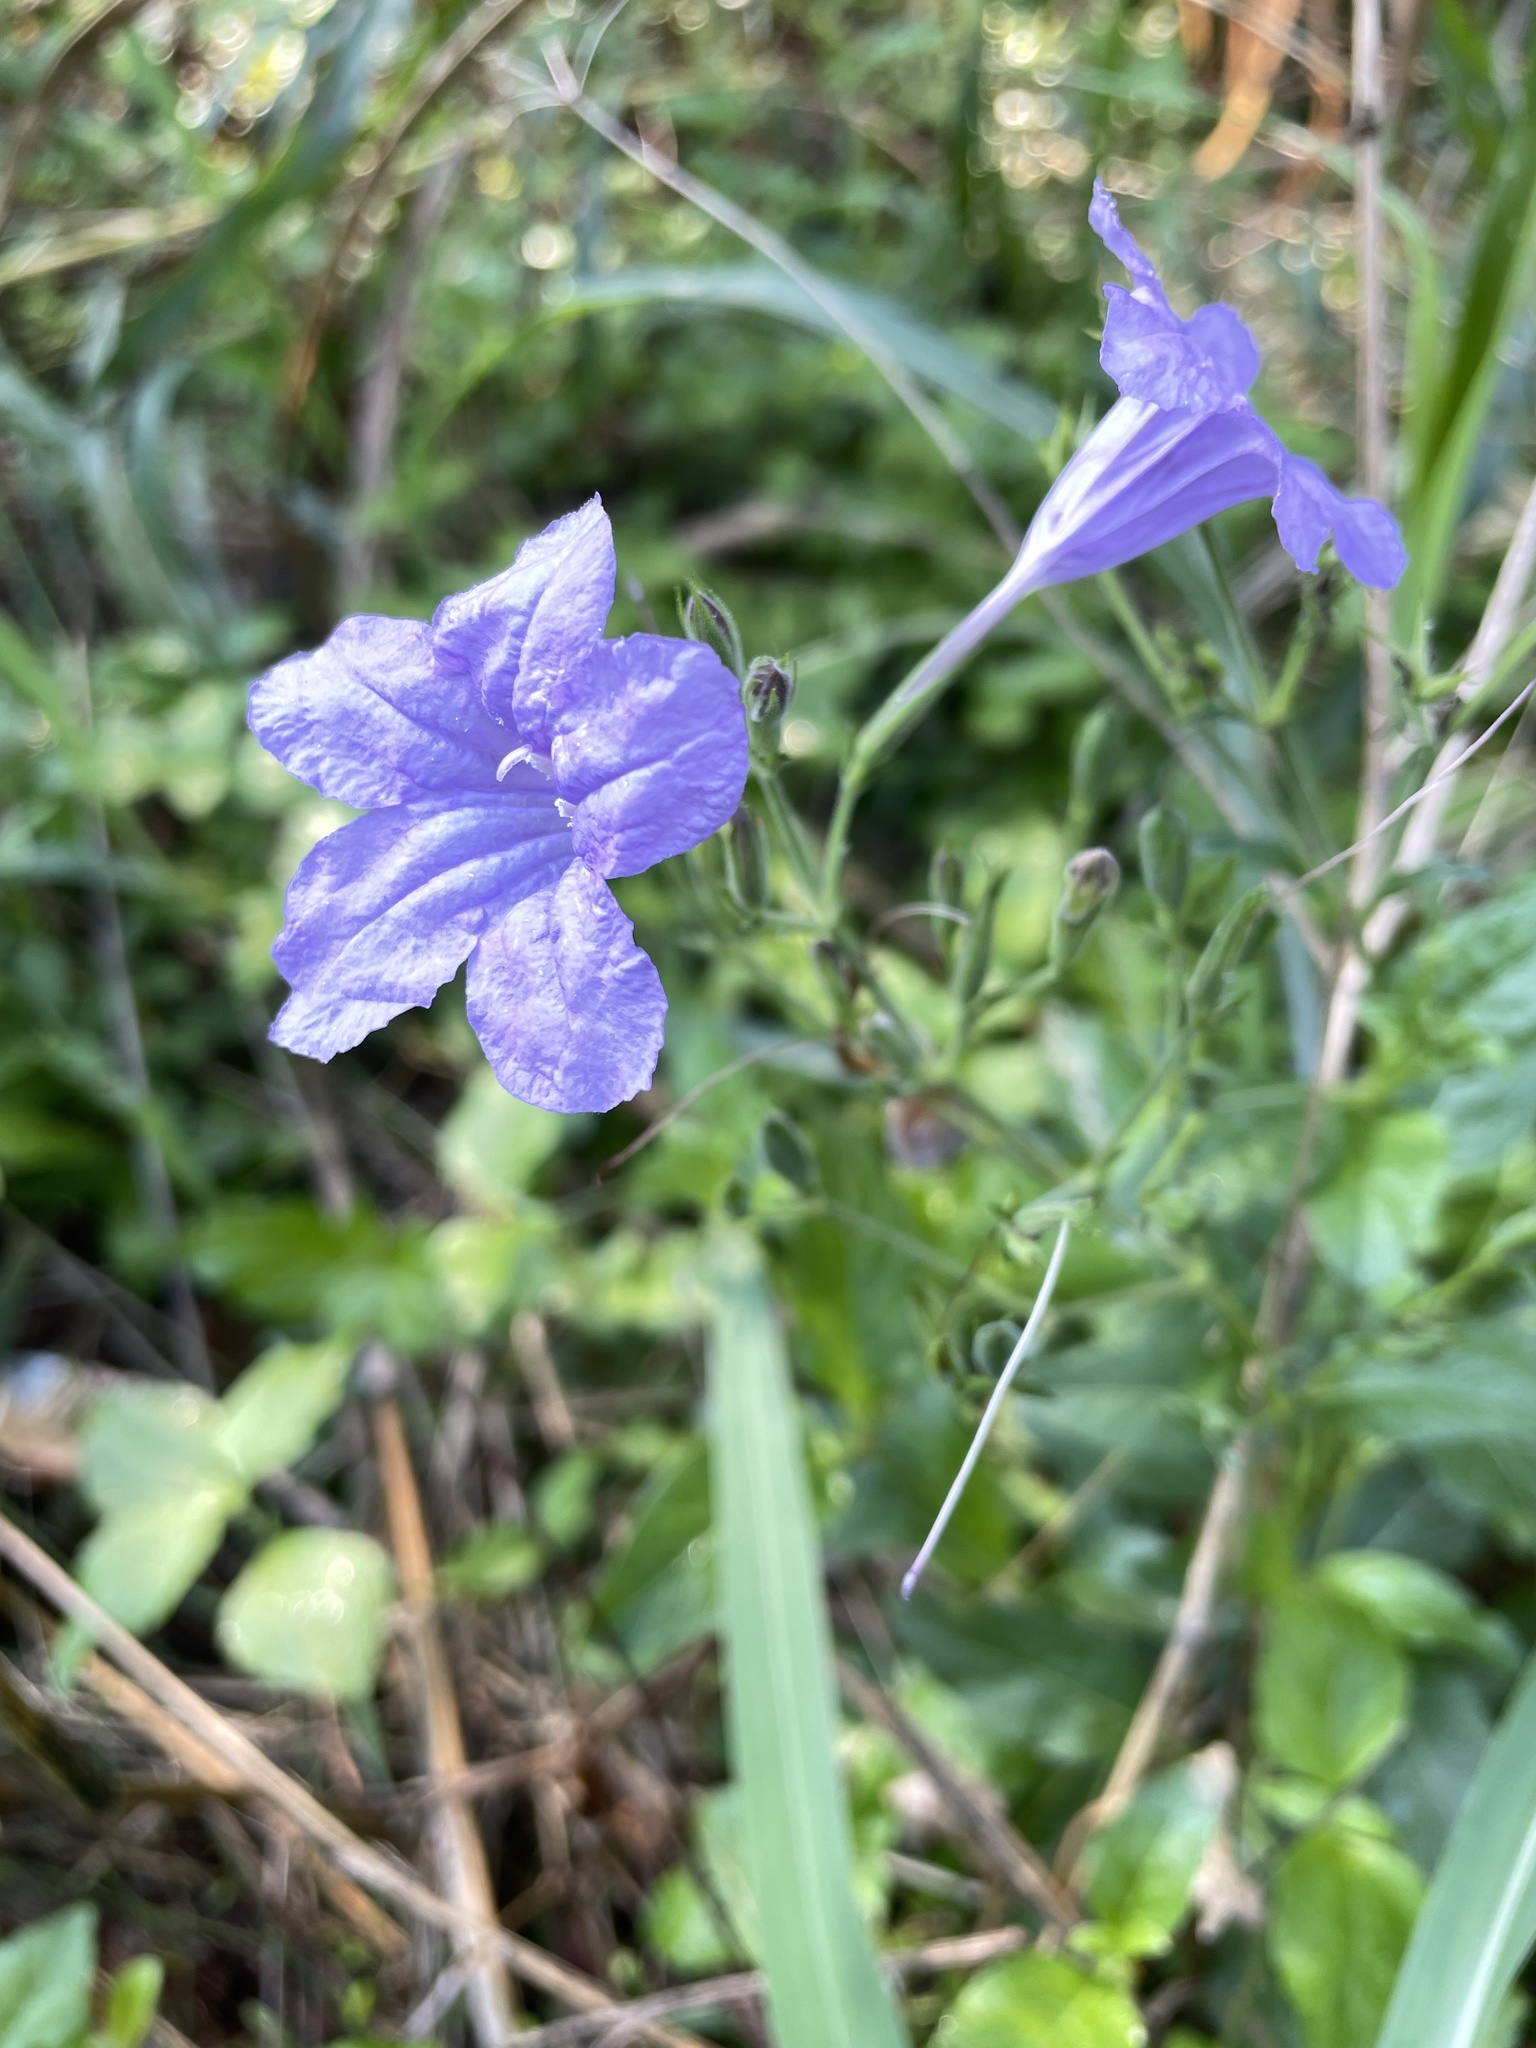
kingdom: Plantae
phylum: Tracheophyta
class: Magnoliopsida
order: Lamiales
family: Acanthaceae
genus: Ruellia
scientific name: Ruellia ciliatiflora
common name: Hairyflower wild petunia
